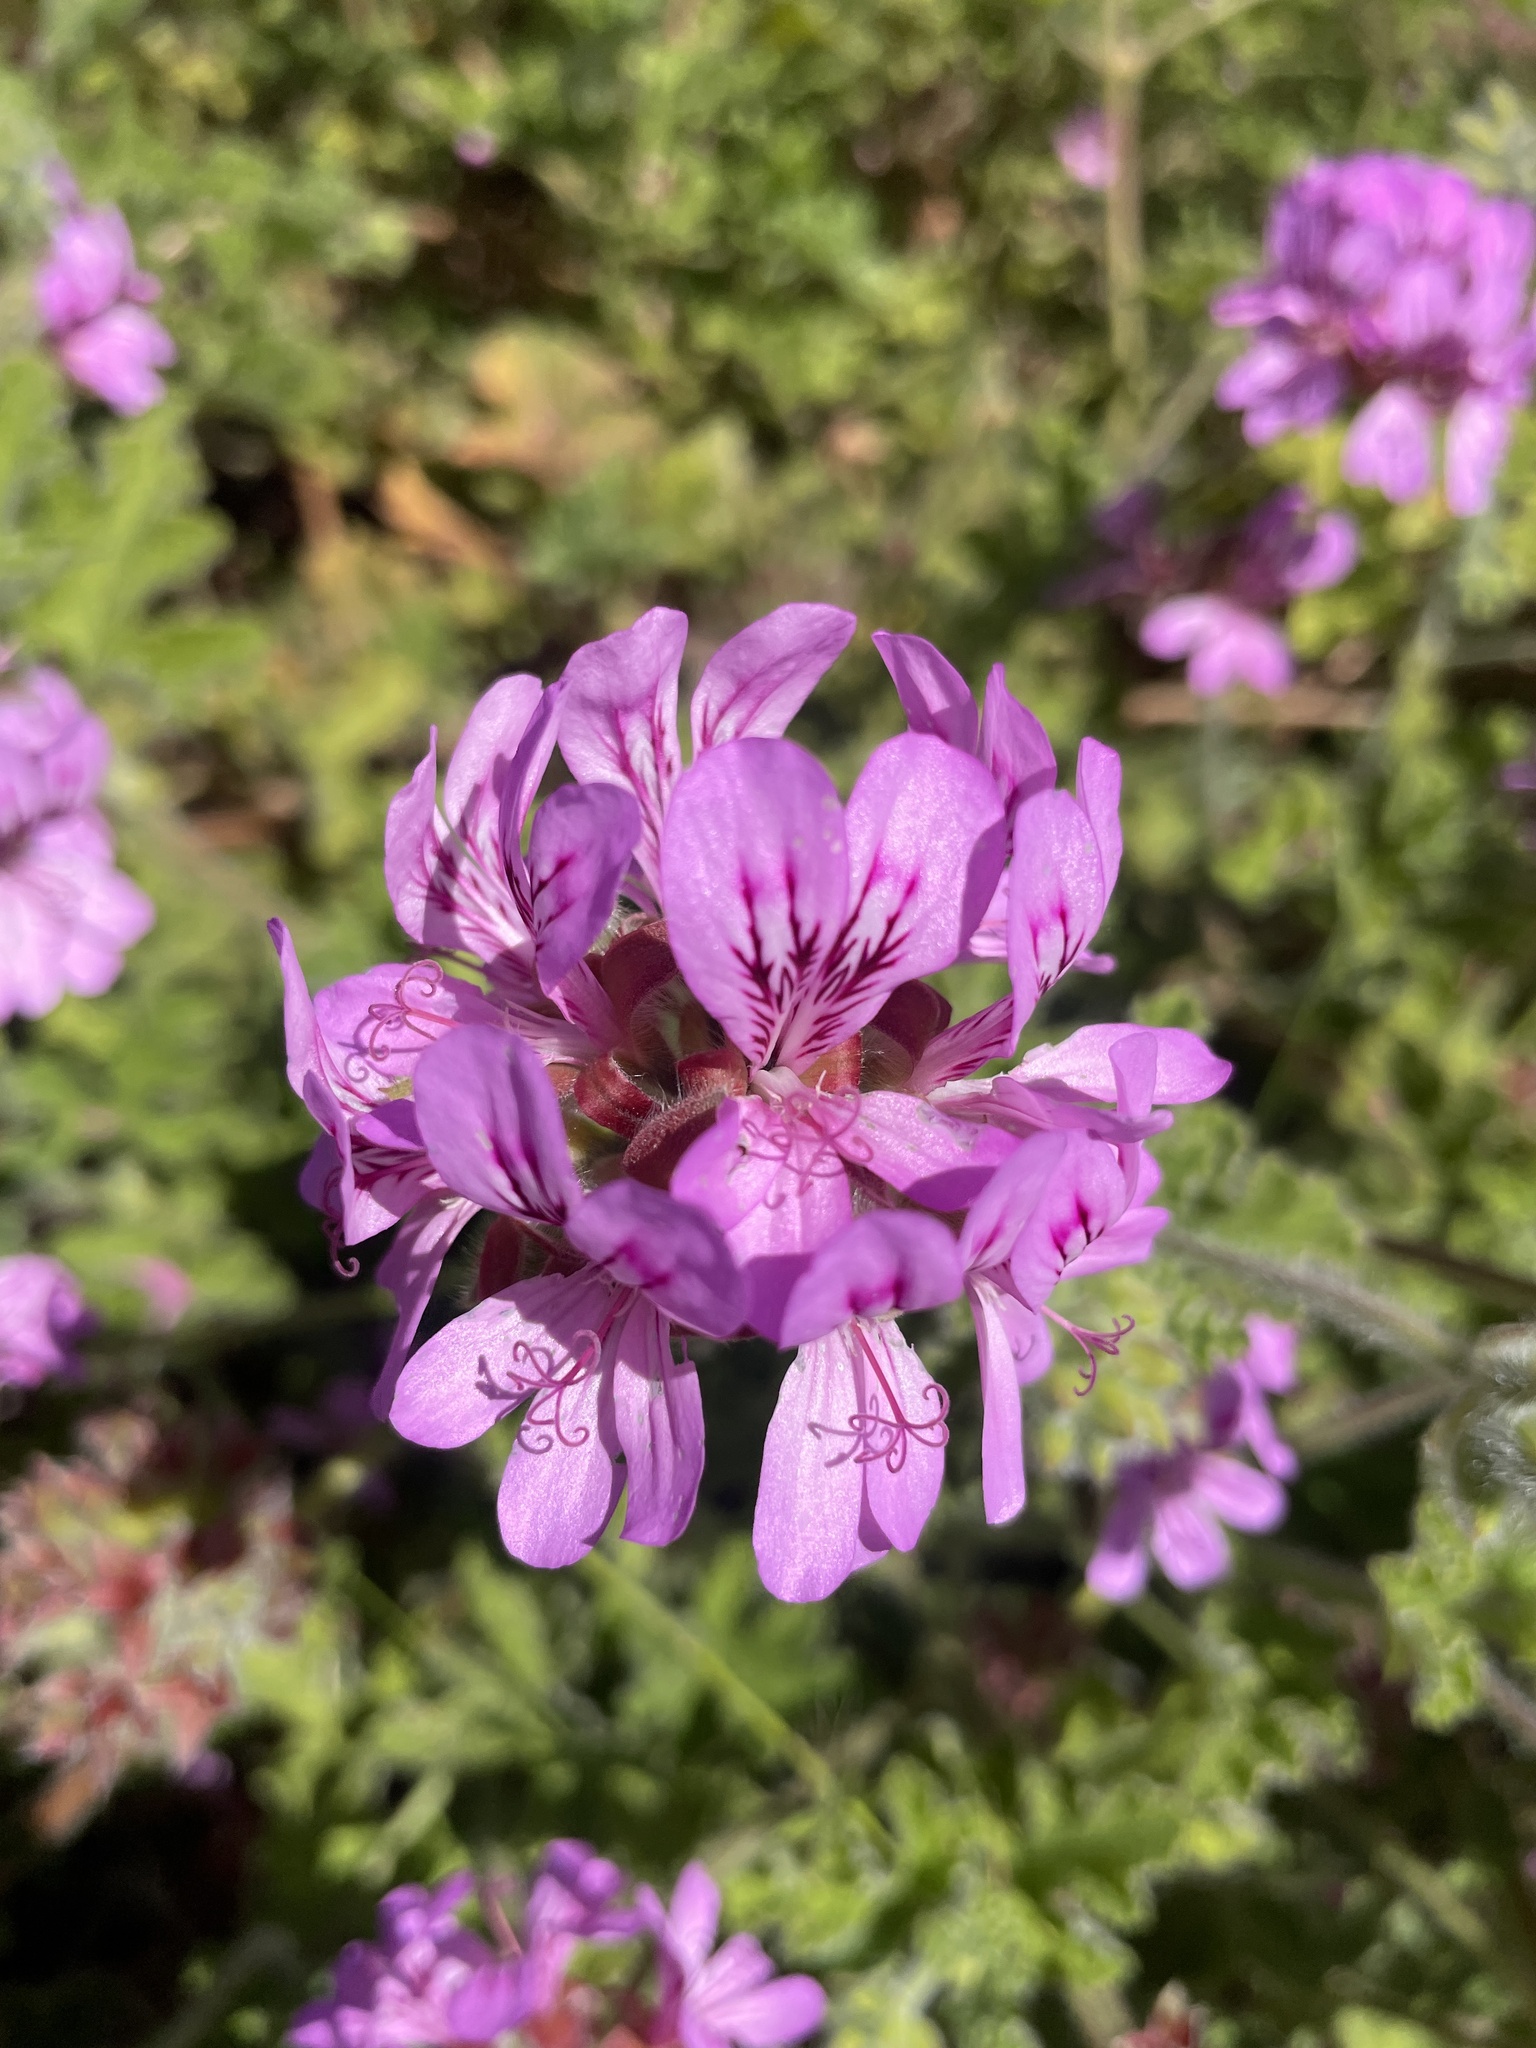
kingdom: Plantae
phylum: Tracheophyta
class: Magnoliopsida
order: Geraniales
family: Geraniaceae
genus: Pelargonium
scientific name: Pelargonium capitatum
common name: Rose scented geranium
